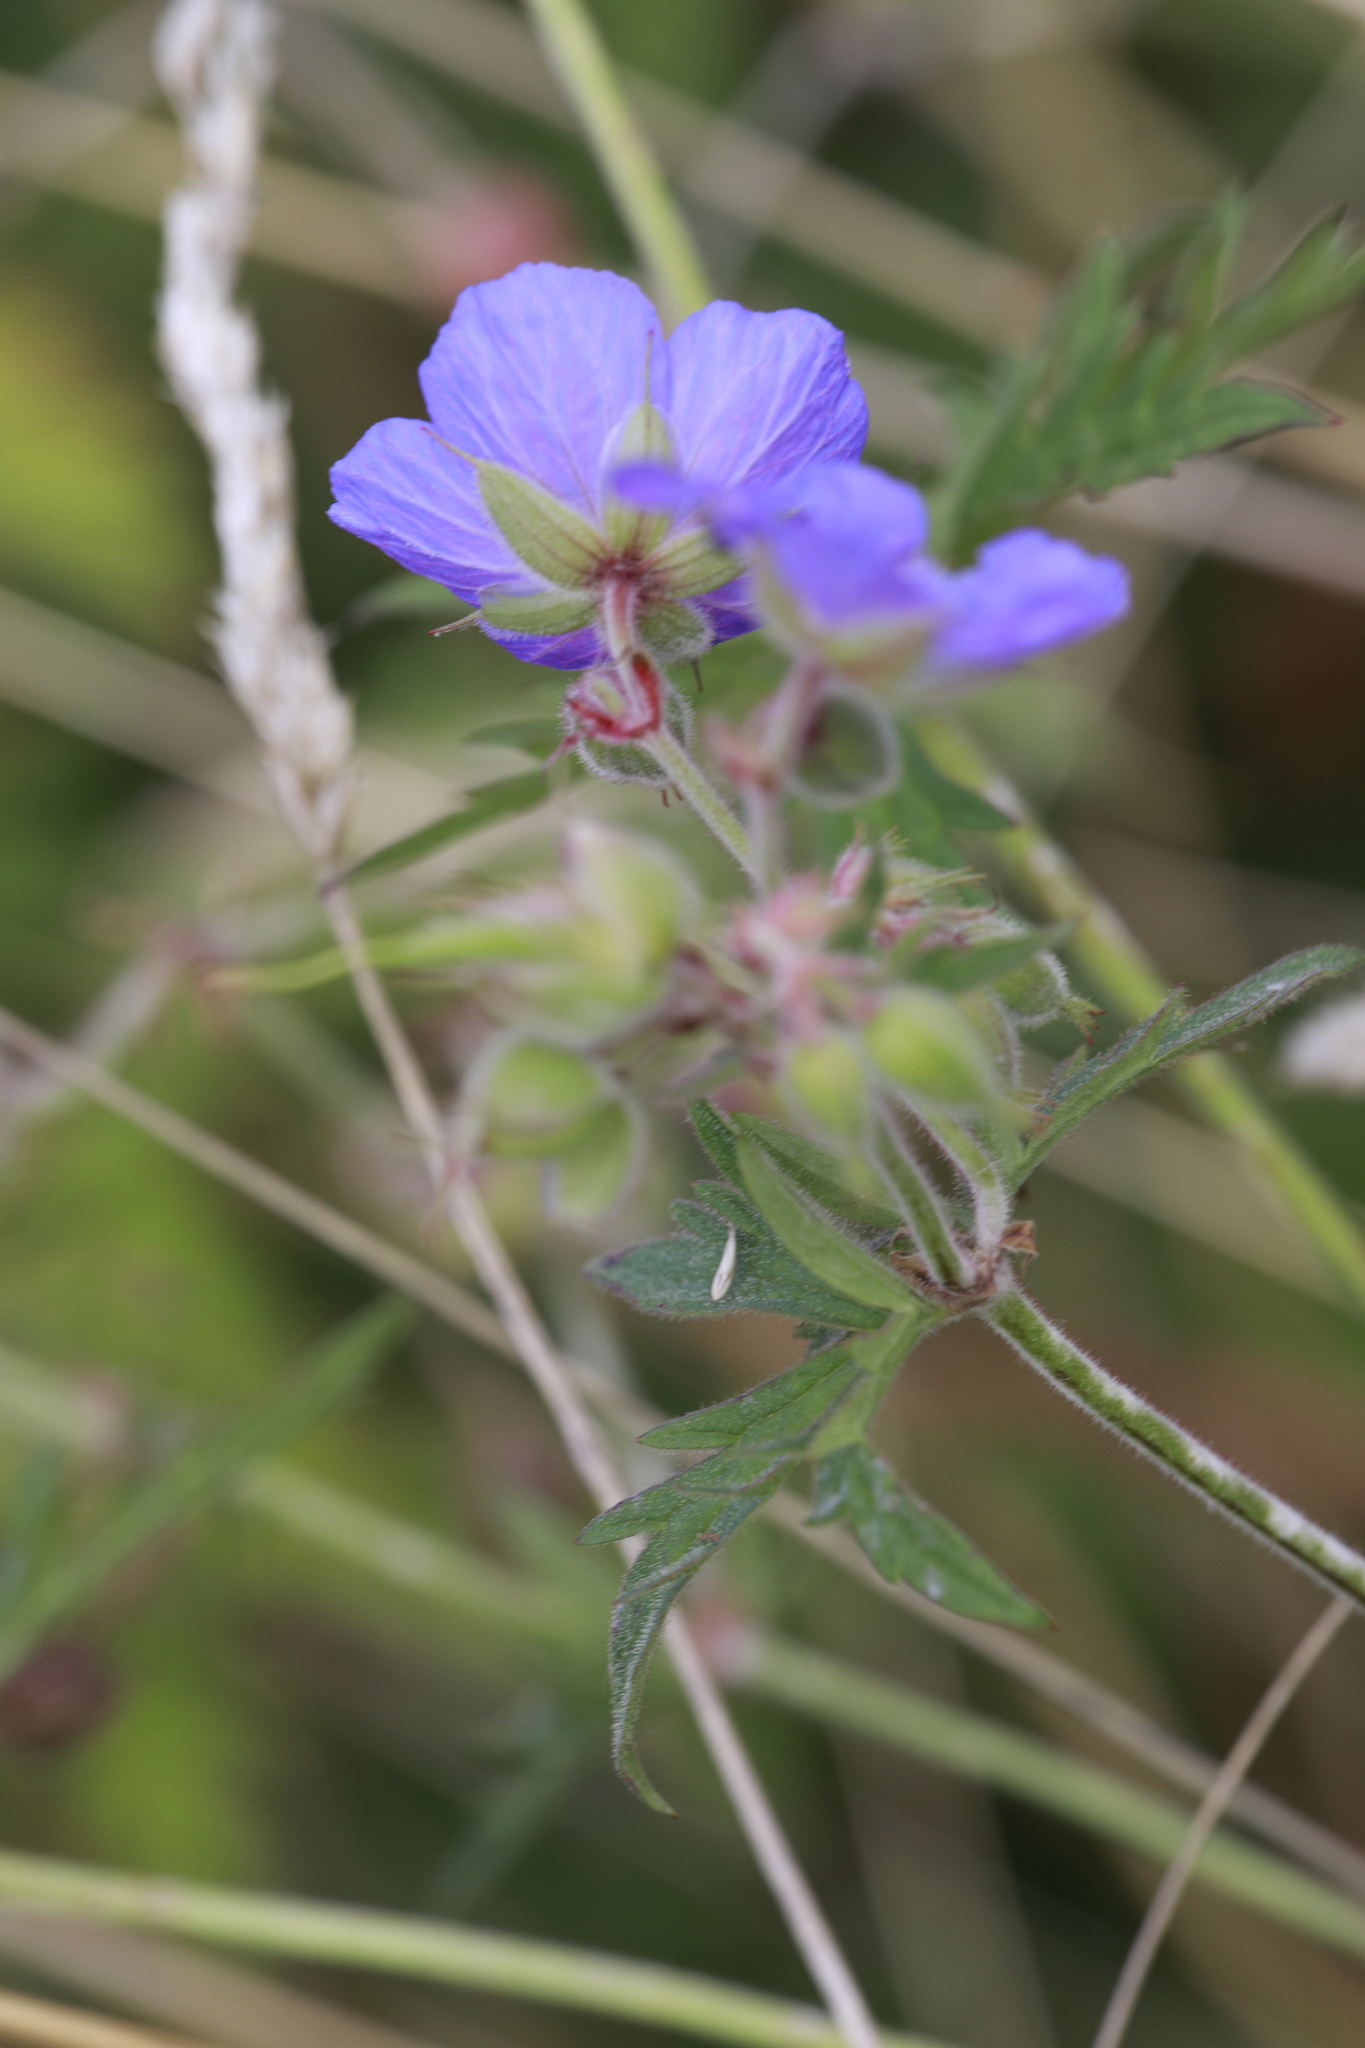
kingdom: Plantae
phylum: Tracheophyta
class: Magnoliopsida
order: Geraniales
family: Geraniaceae
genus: Geranium
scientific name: Geranium pratense
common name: Meadow crane's-bill
